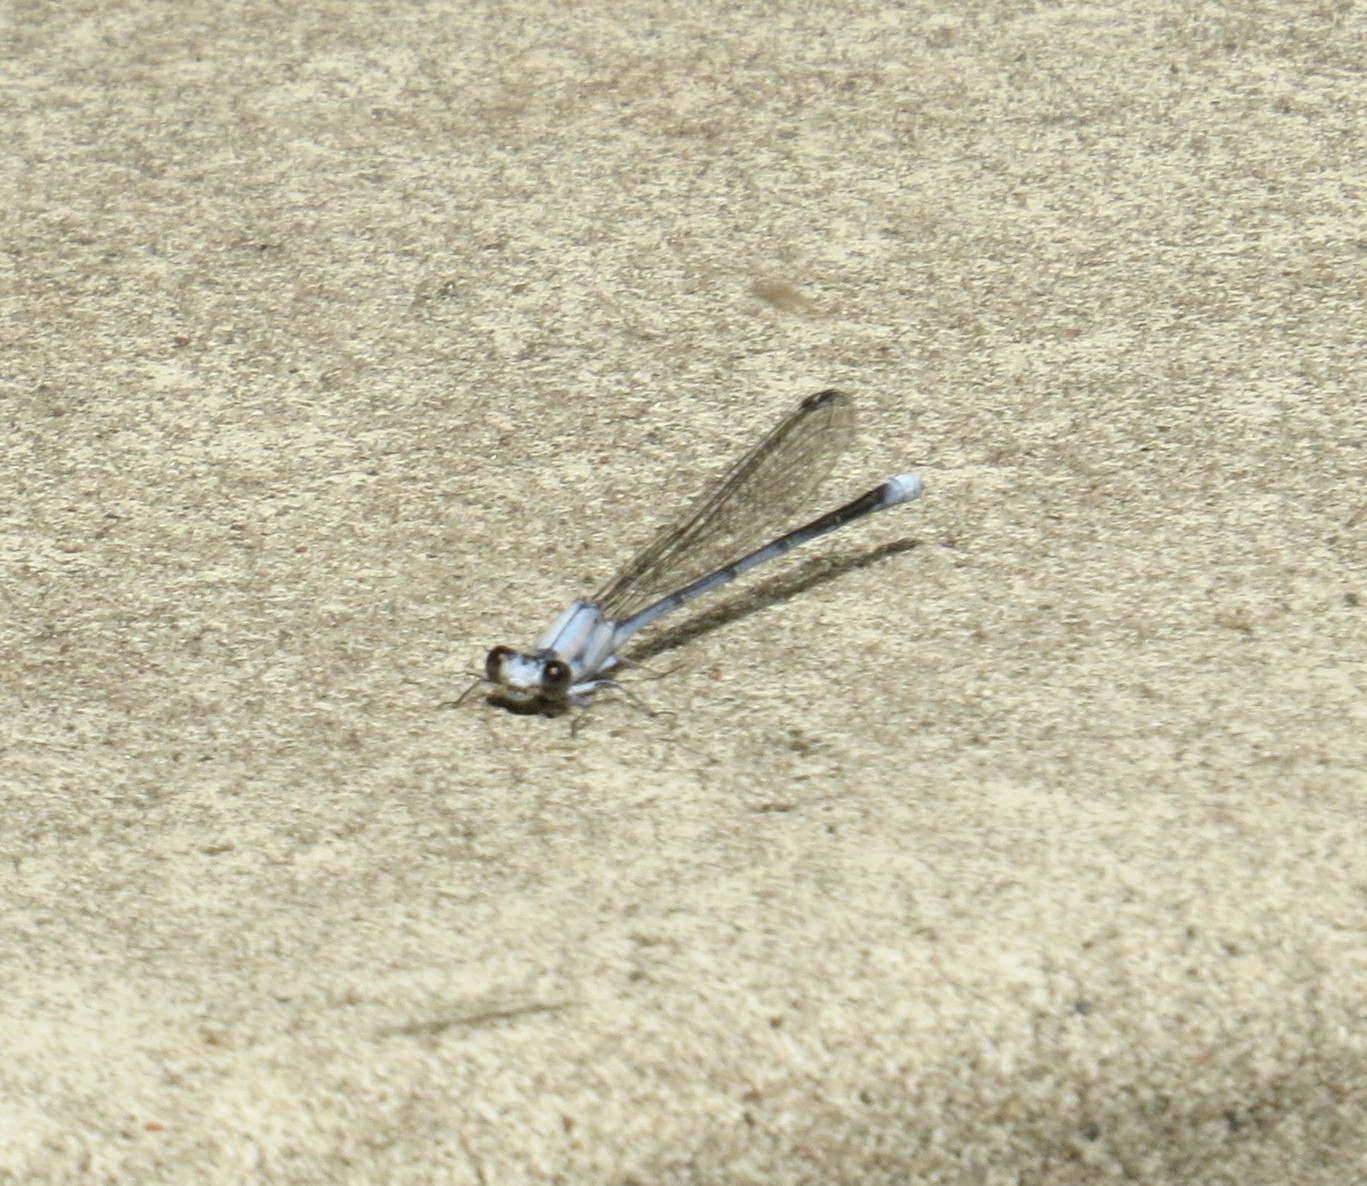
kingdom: Animalia
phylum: Arthropoda
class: Insecta
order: Odonata
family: Coenagrionidae
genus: Argia
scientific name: Argia moesta
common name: Powdered dancer
